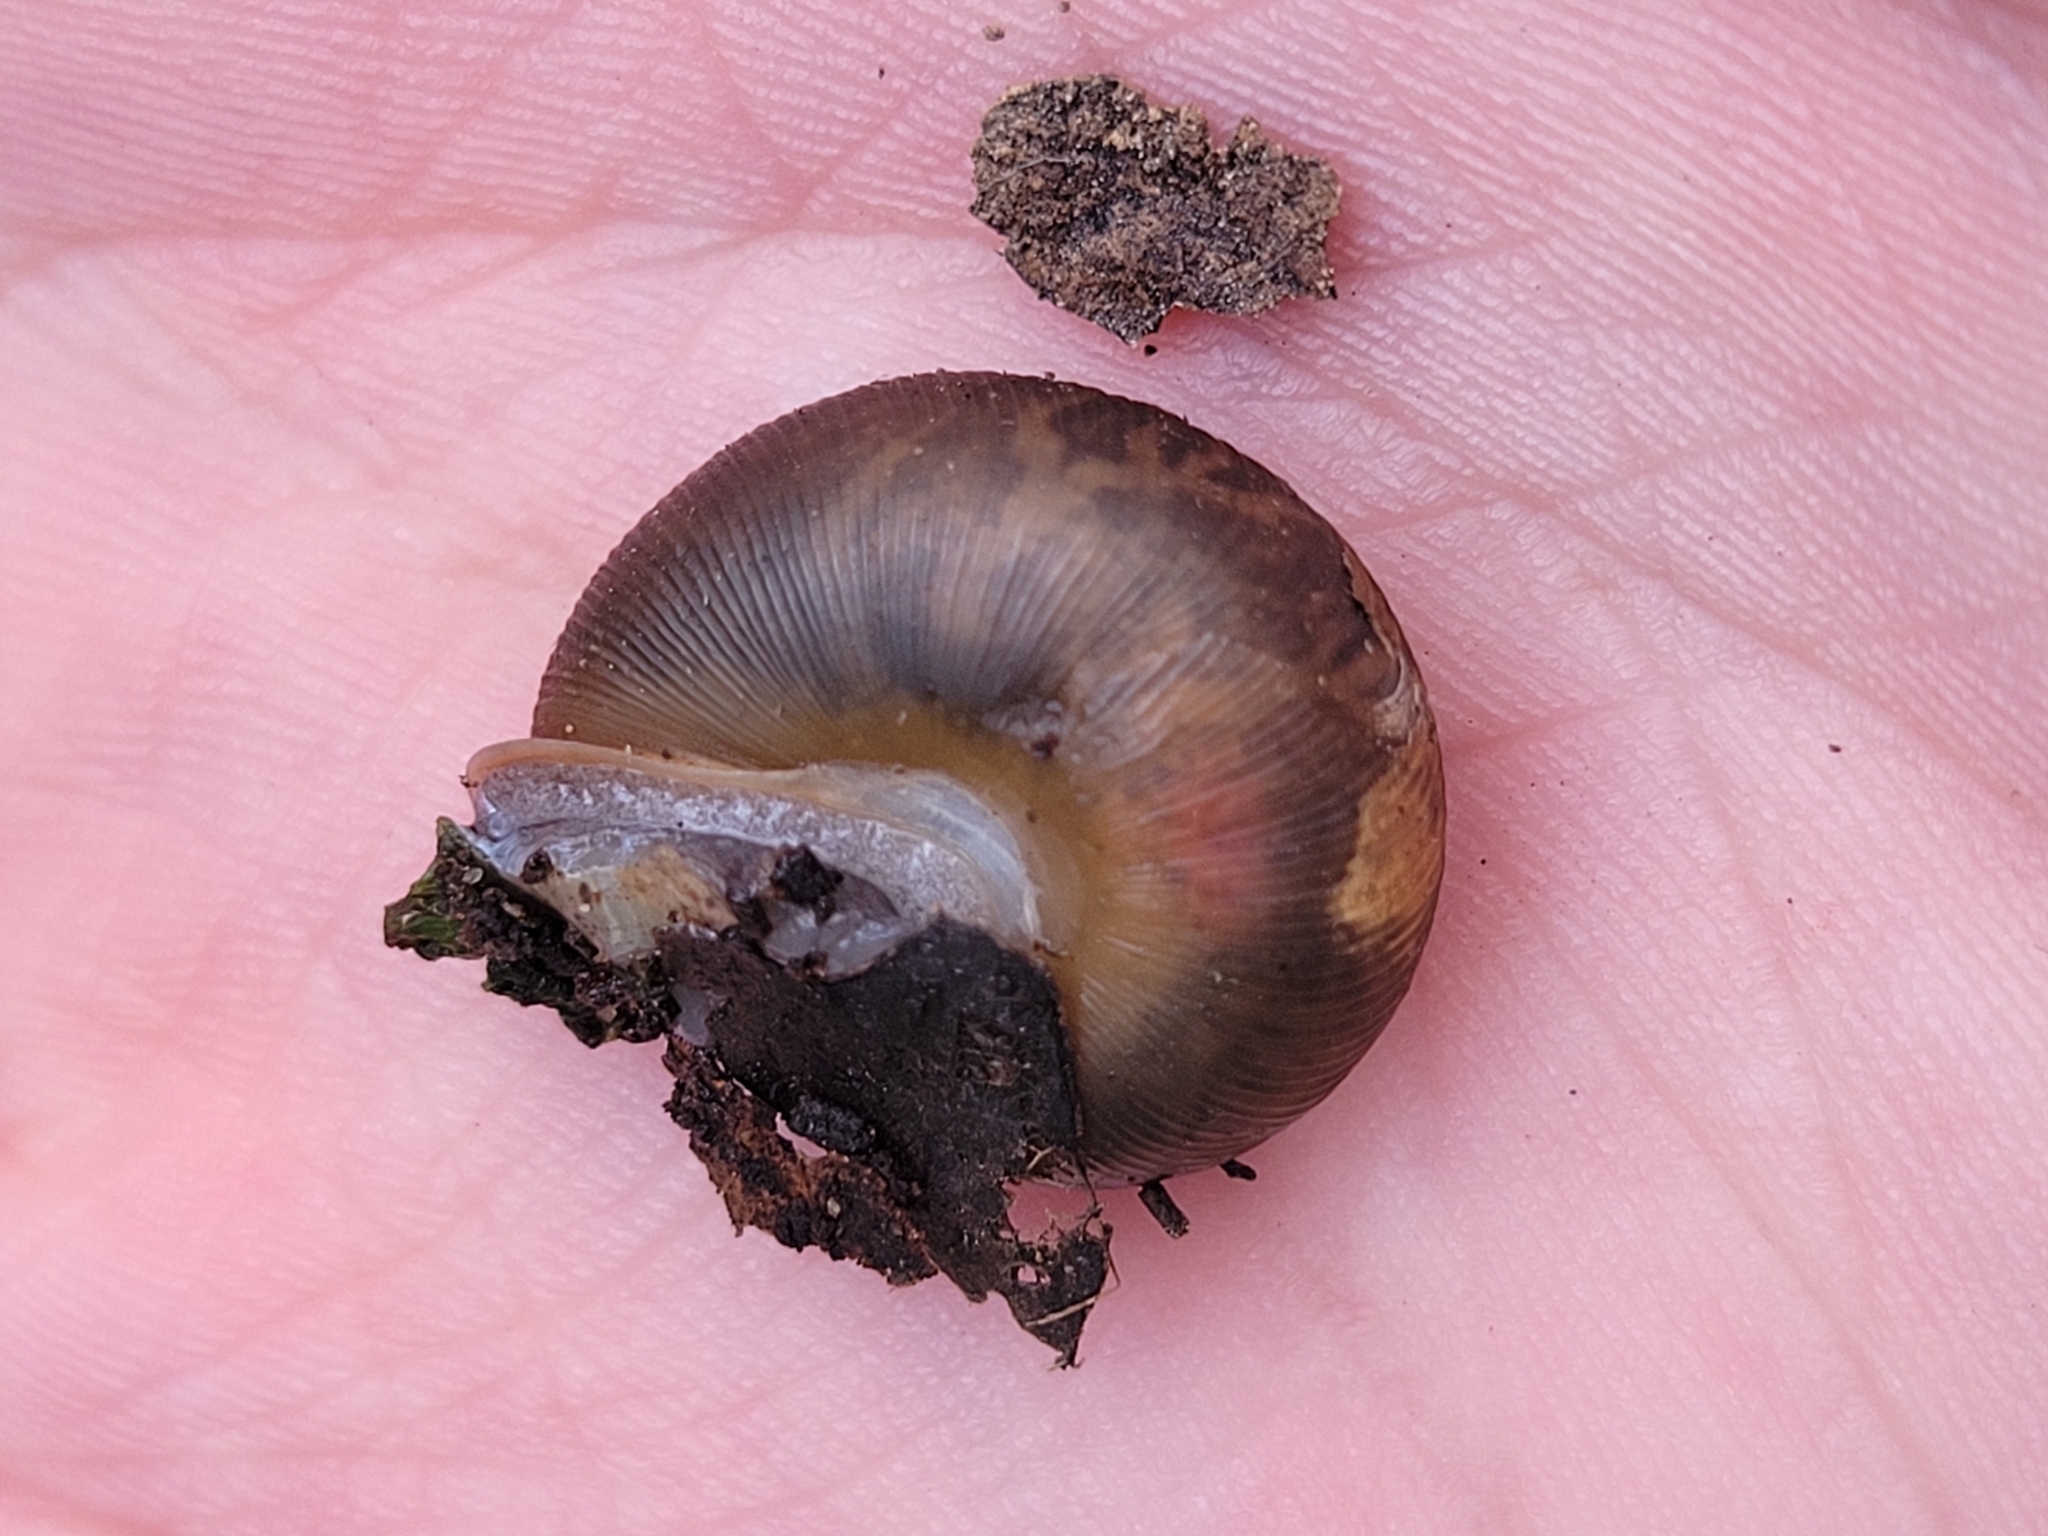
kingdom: Animalia
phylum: Mollusca
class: Gastropoda
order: Stylommatophora
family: Polygyridae
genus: Mesodon
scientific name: Mesodon thyroidus
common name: White-lip globe
